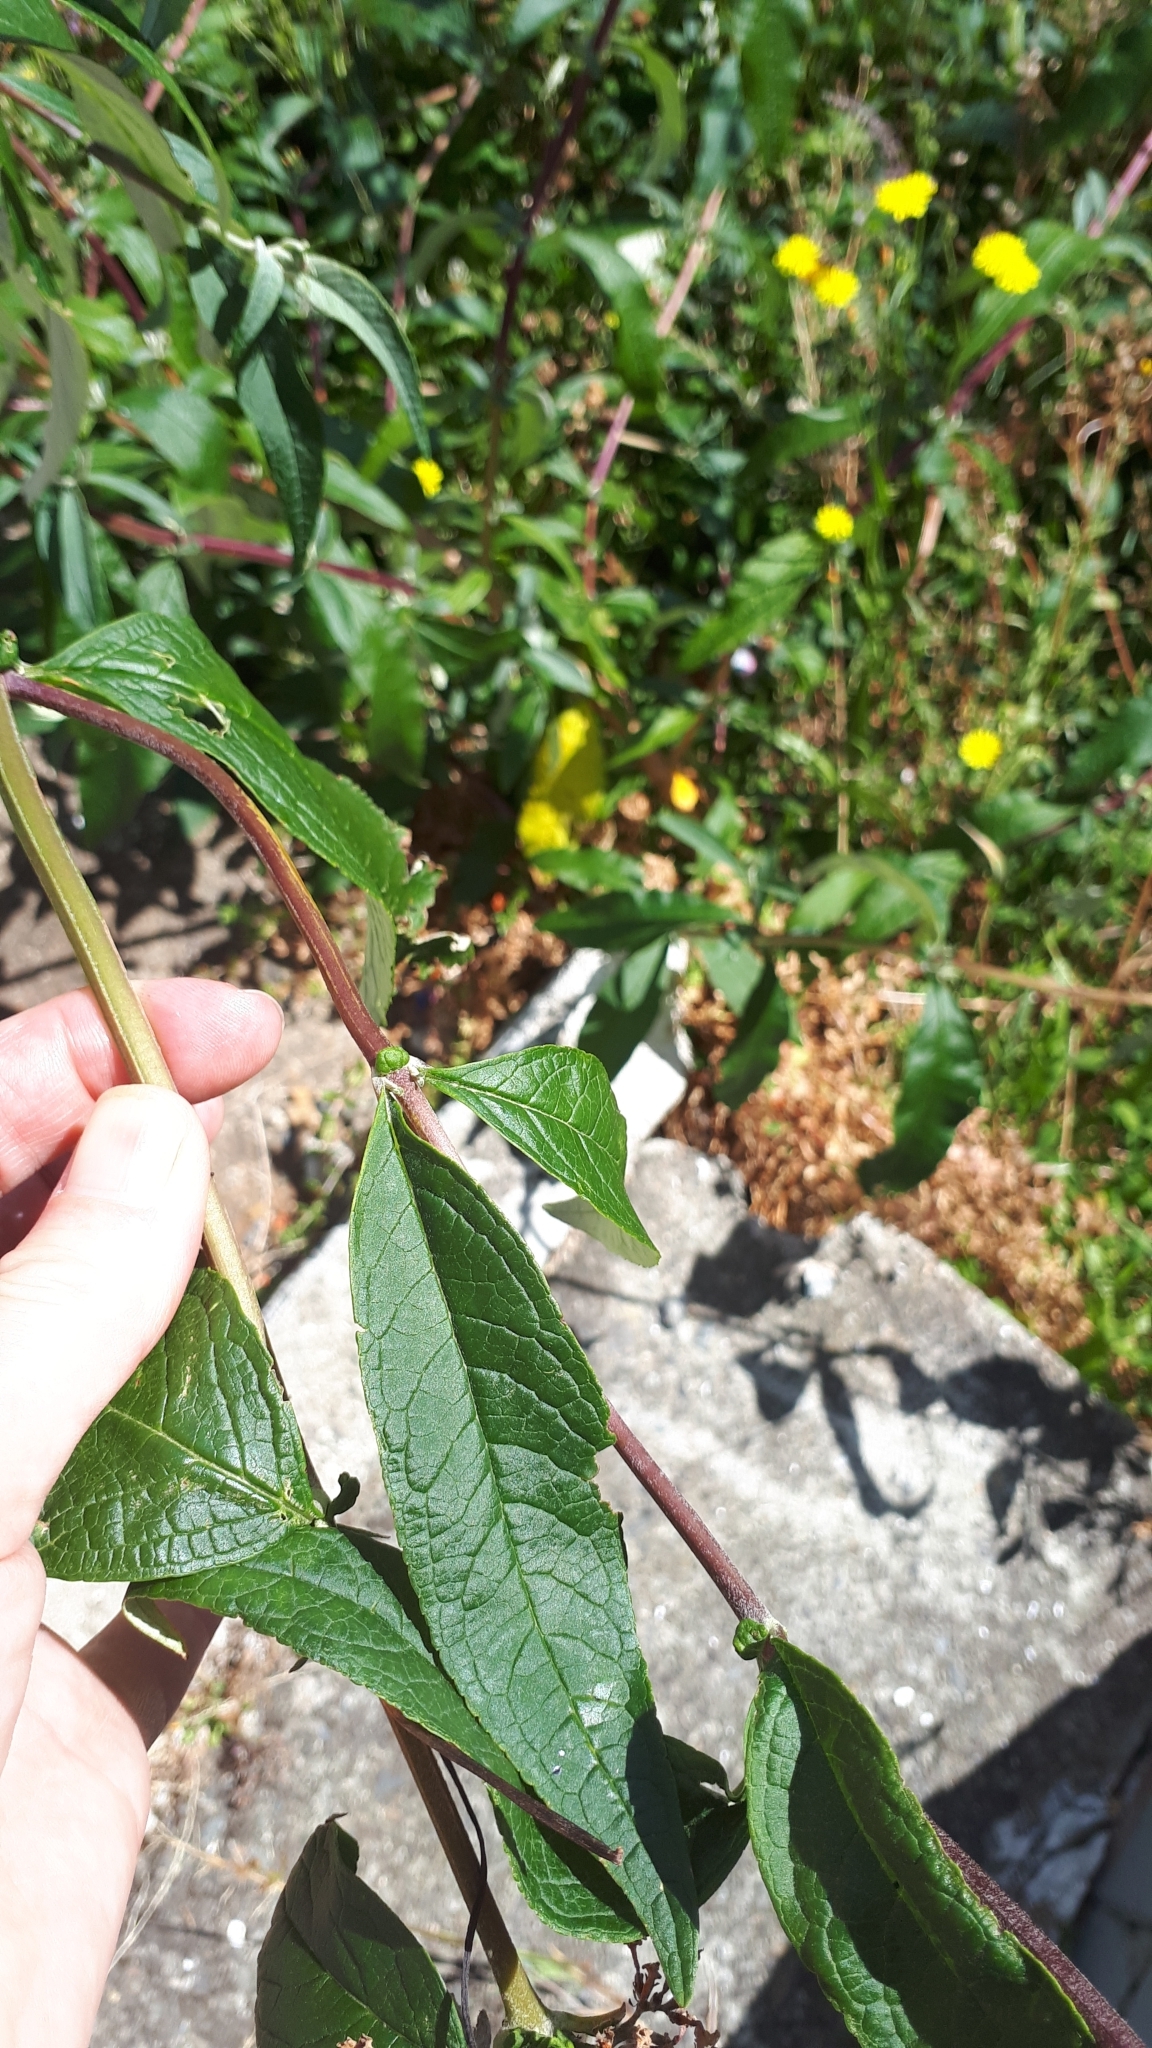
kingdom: Plantae
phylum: Tracheophyta
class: Magnoliopsida
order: Lamiales
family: Scrophulariaceae
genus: Buddleja
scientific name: Buddleja davidii
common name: Butterfly-bush
